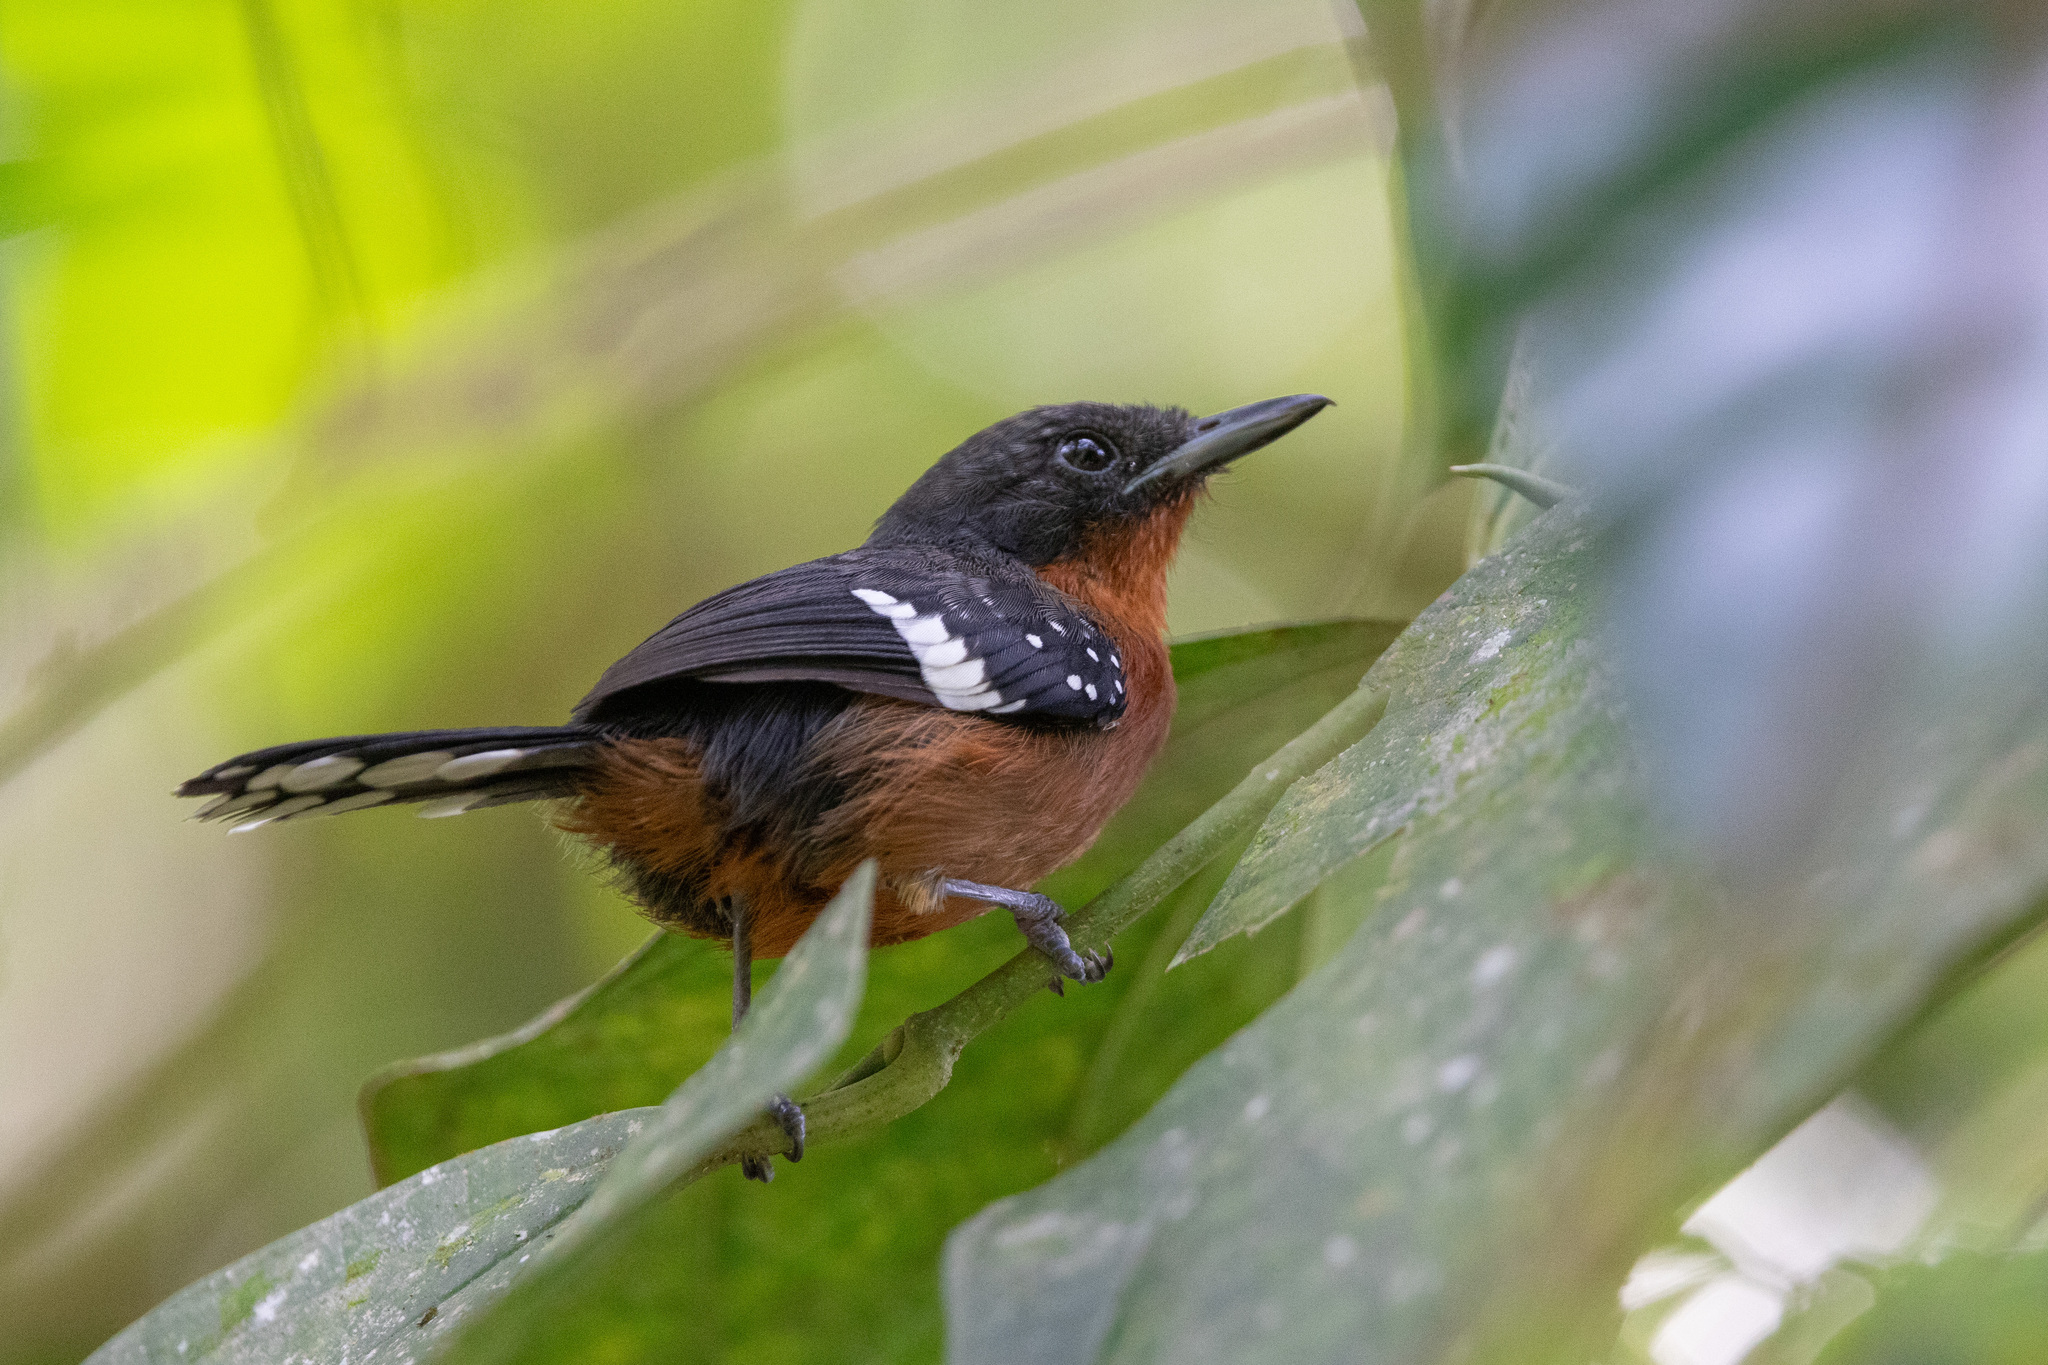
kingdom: Animalia
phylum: Chordata
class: Aves
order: Passeriformes
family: Thamnophilidae
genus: Microrhopias
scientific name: Microrhopias quixensis
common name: Dot-winged antwren
